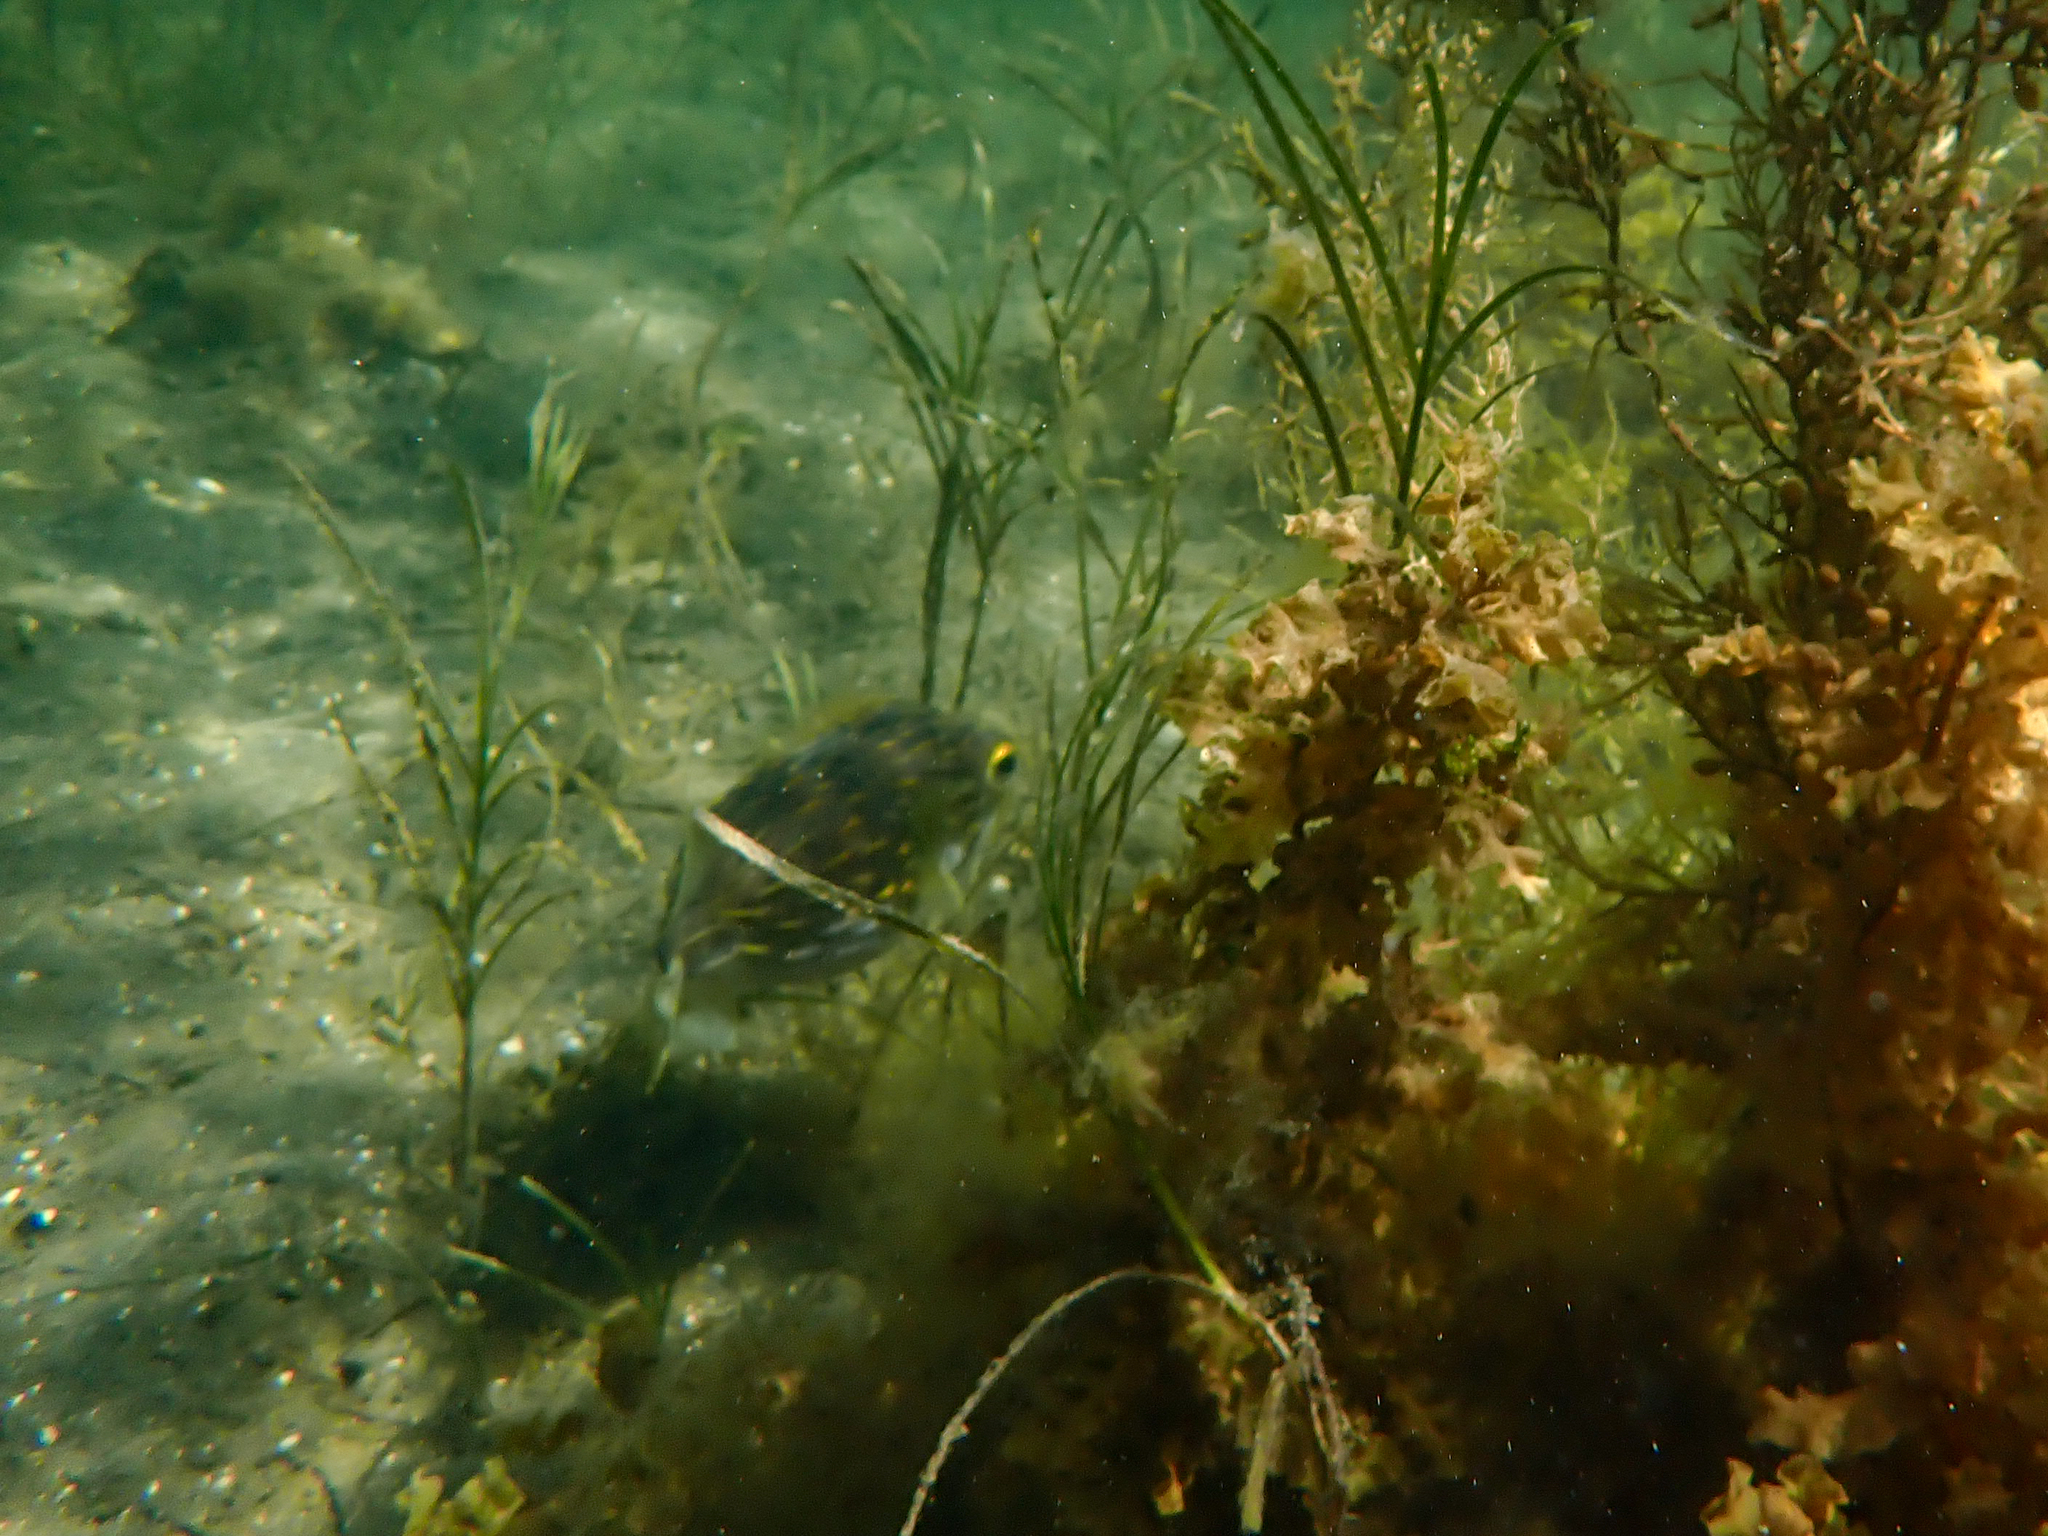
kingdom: Animalia
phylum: Chordata
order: Tetraodontiformes
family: Diodontidae
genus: Diodon
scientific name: Diodon nicthemerus
